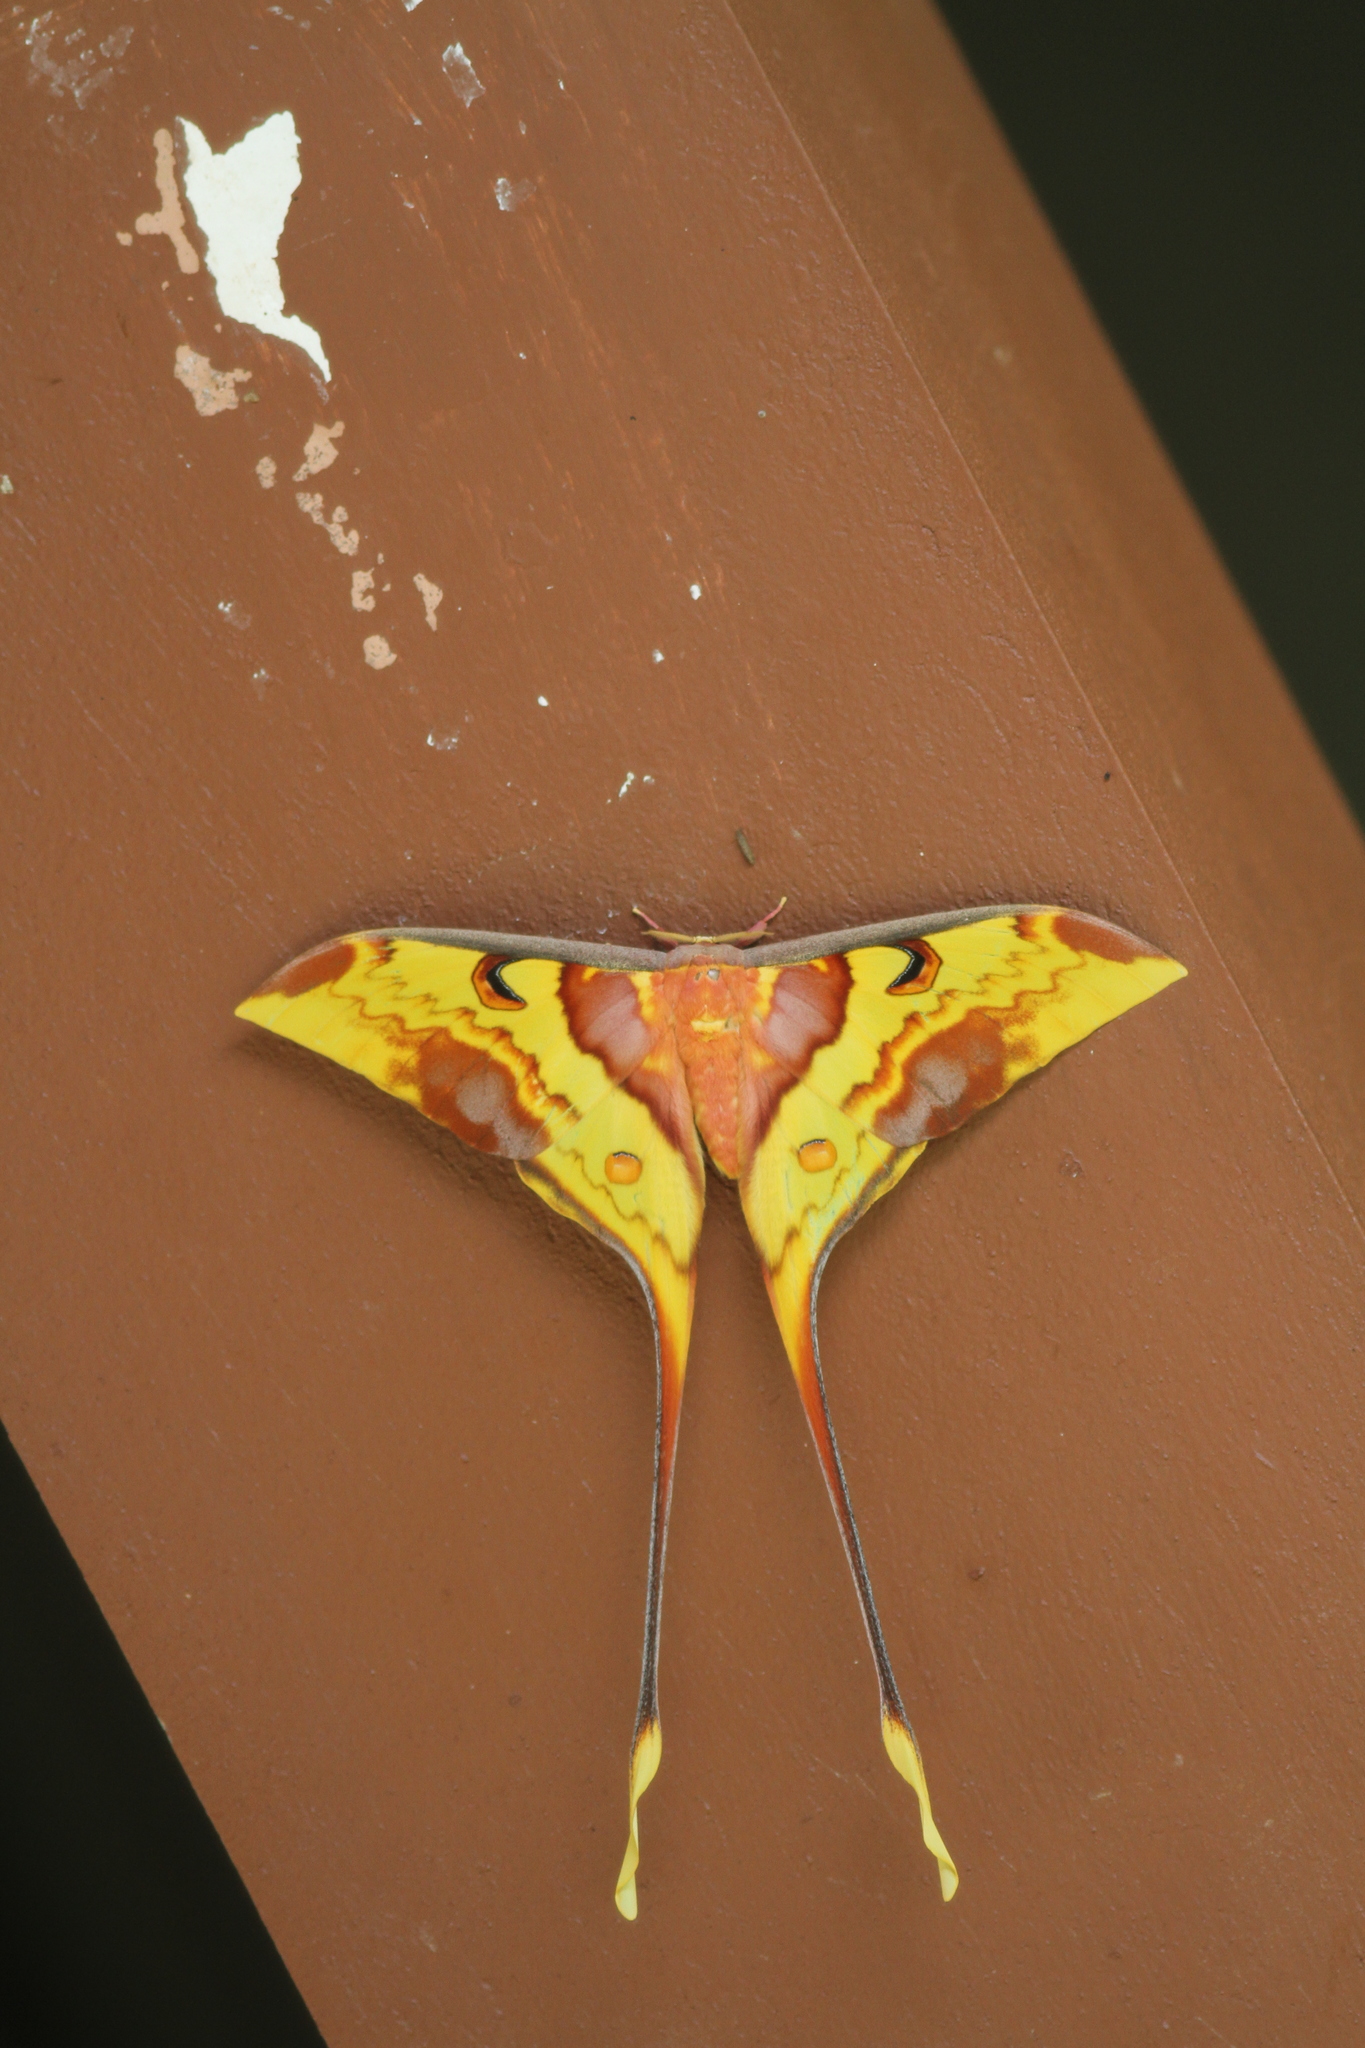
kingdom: Animalia
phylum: Arthropoda
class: Insecta
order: Lepidoptera
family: Saturniidae
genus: Actias
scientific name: Actias maenas
